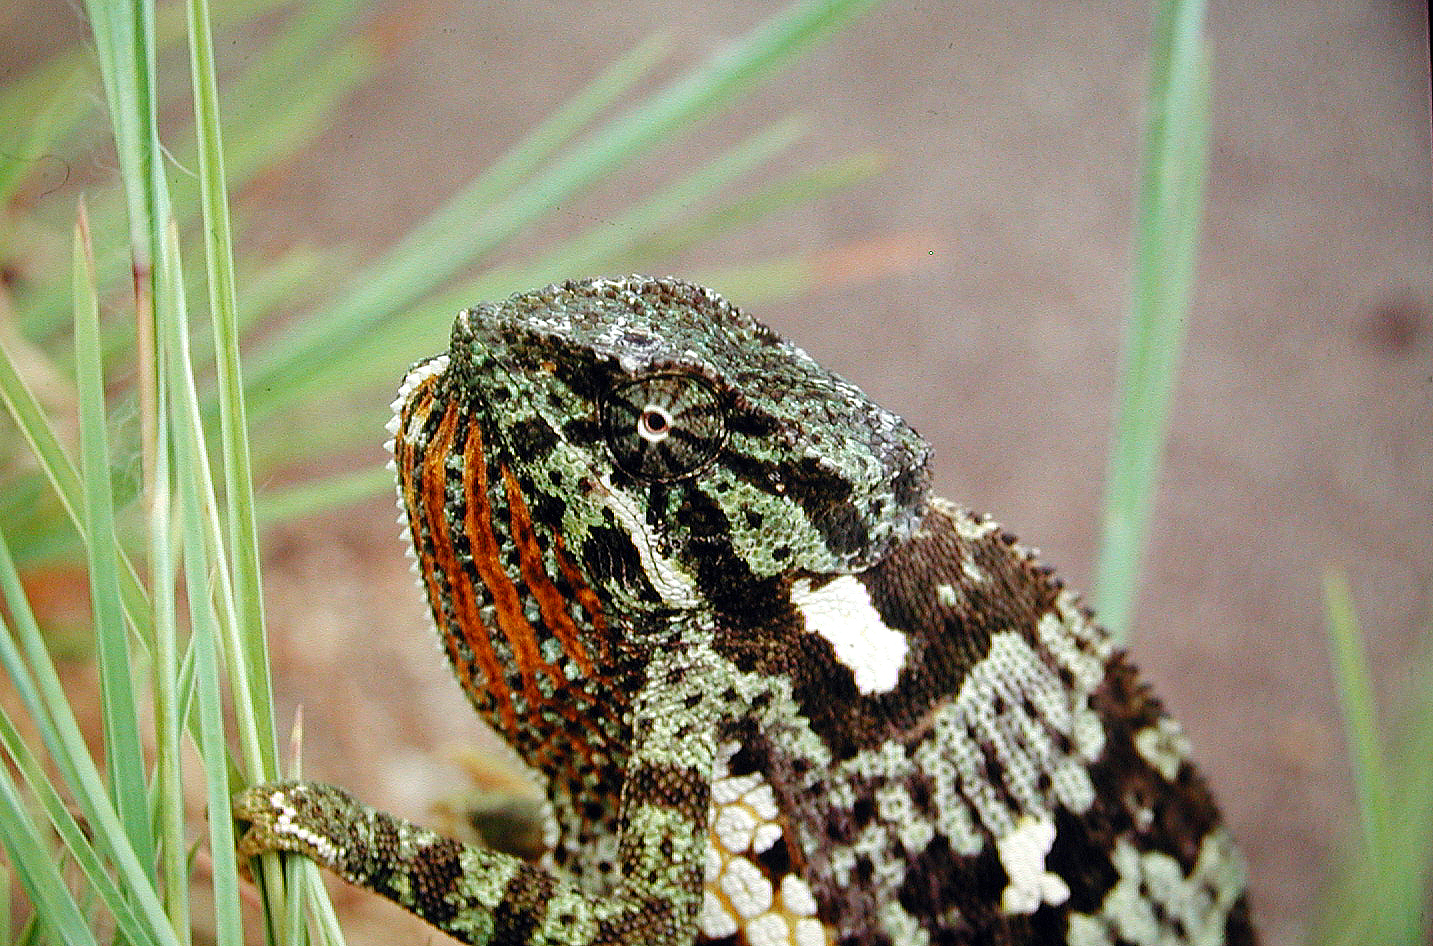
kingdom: Animalia
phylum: Chordata
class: Squamata
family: Chamaeleonidae
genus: Chamaeleo
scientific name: Chamaeleo dilepis
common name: Flapneck chameleon
